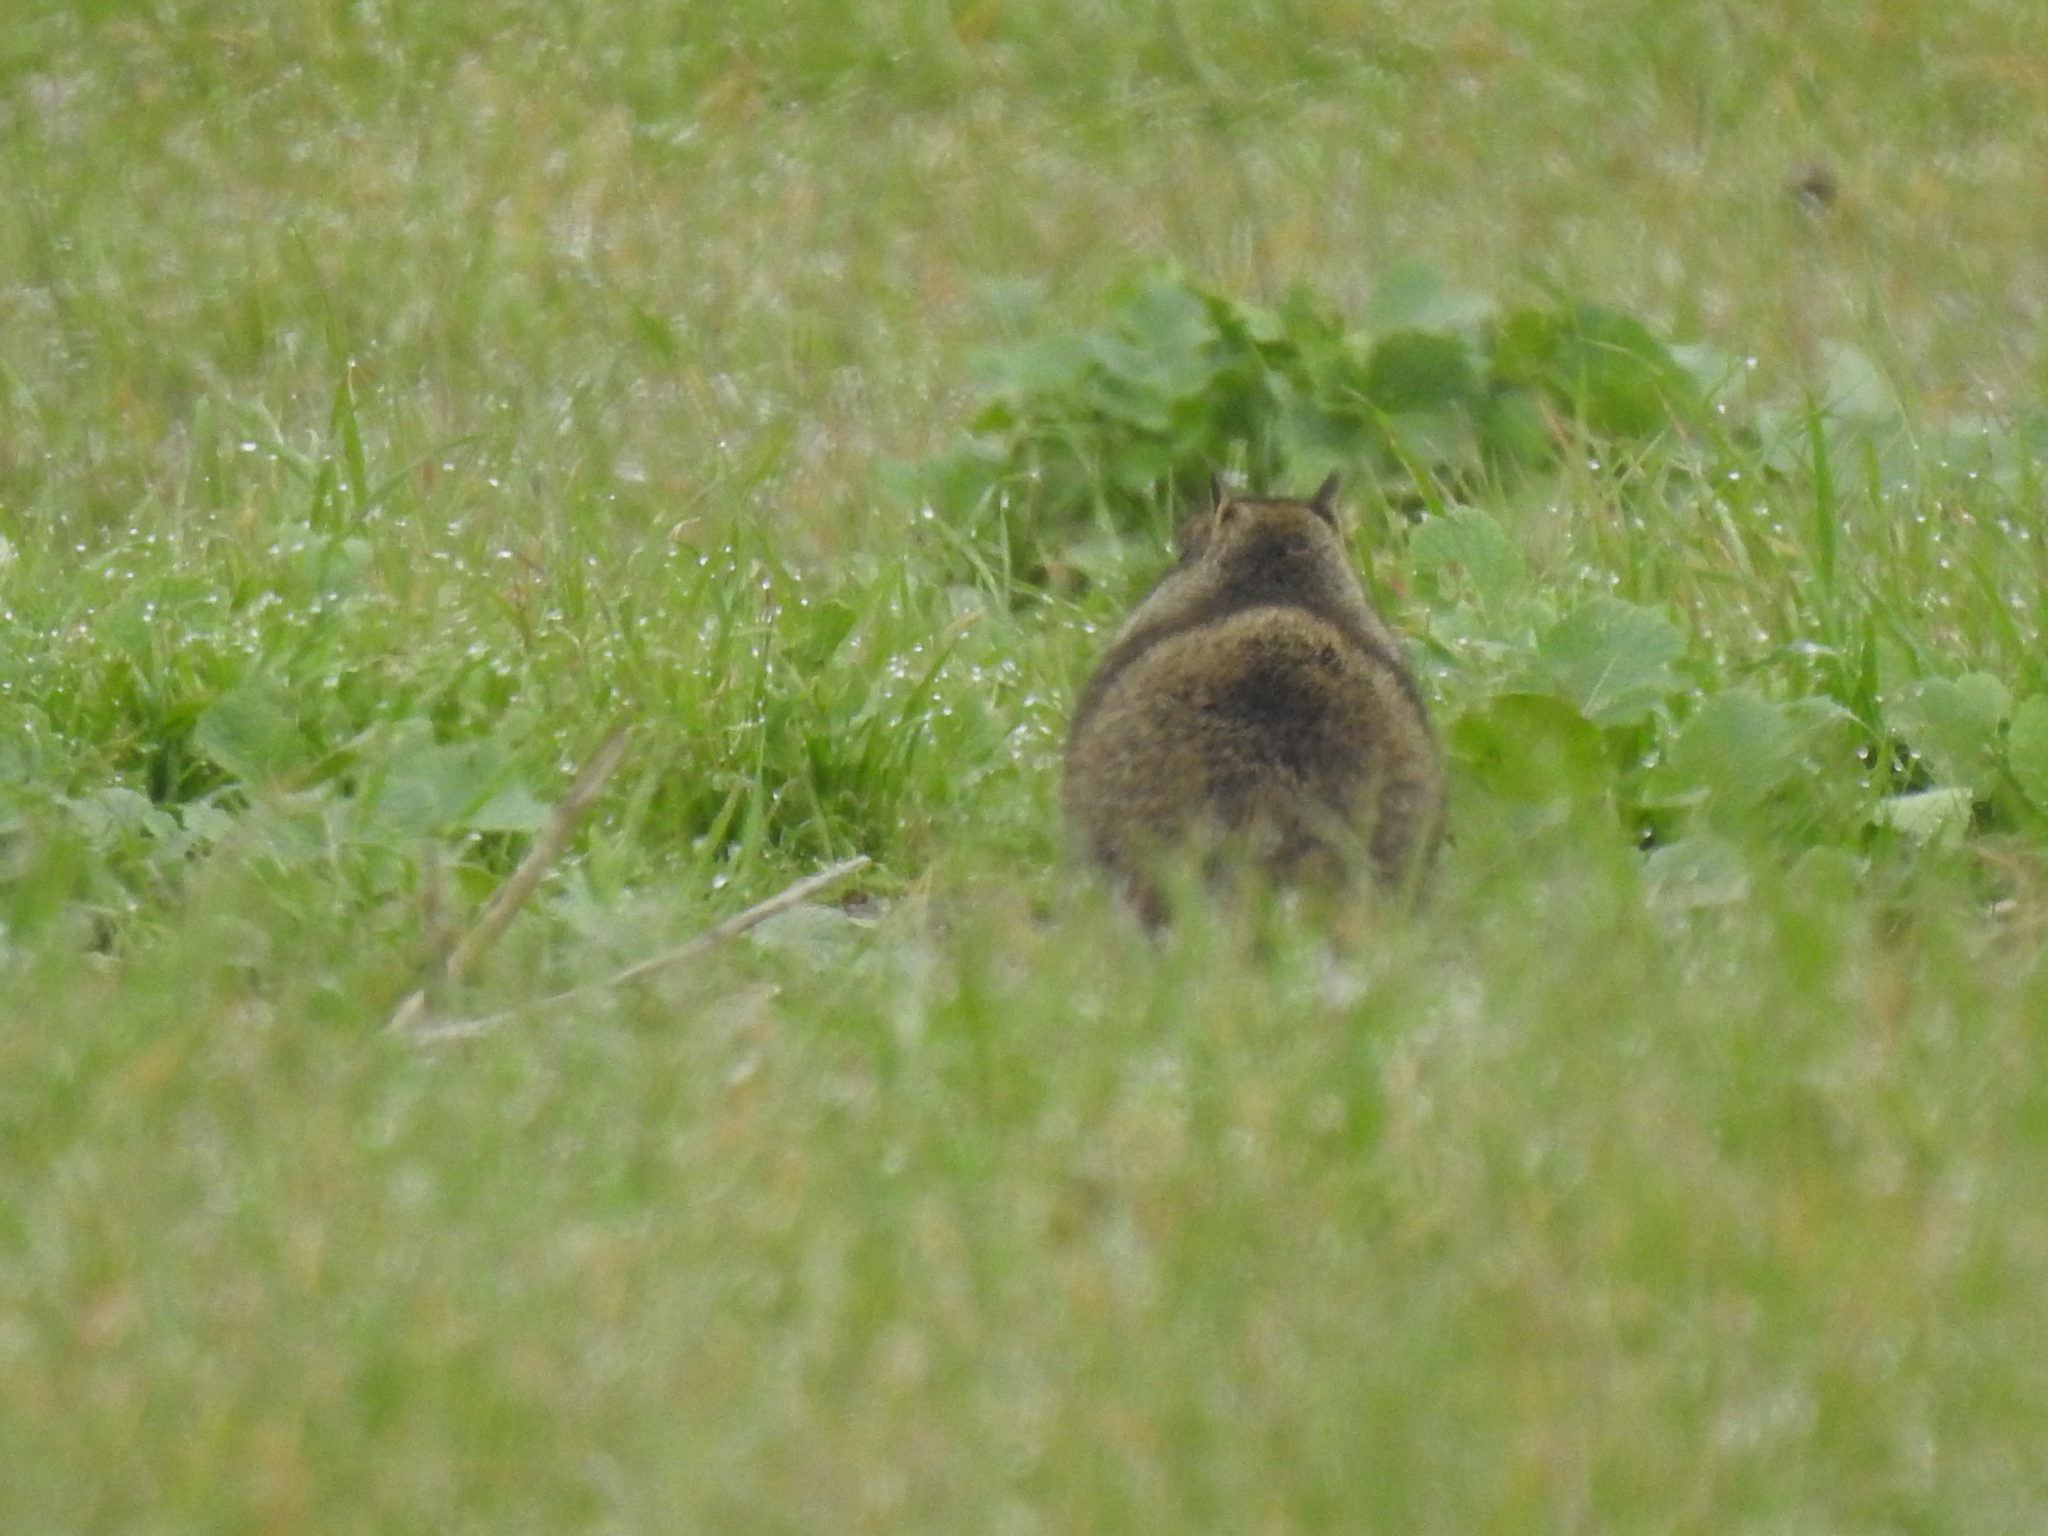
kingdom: Animalia
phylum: Chordata
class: Mammalia
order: Rodentia
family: Sciuridae
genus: Otospermophilus
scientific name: Otospermophilus beecheyi
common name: California ground squirrel
